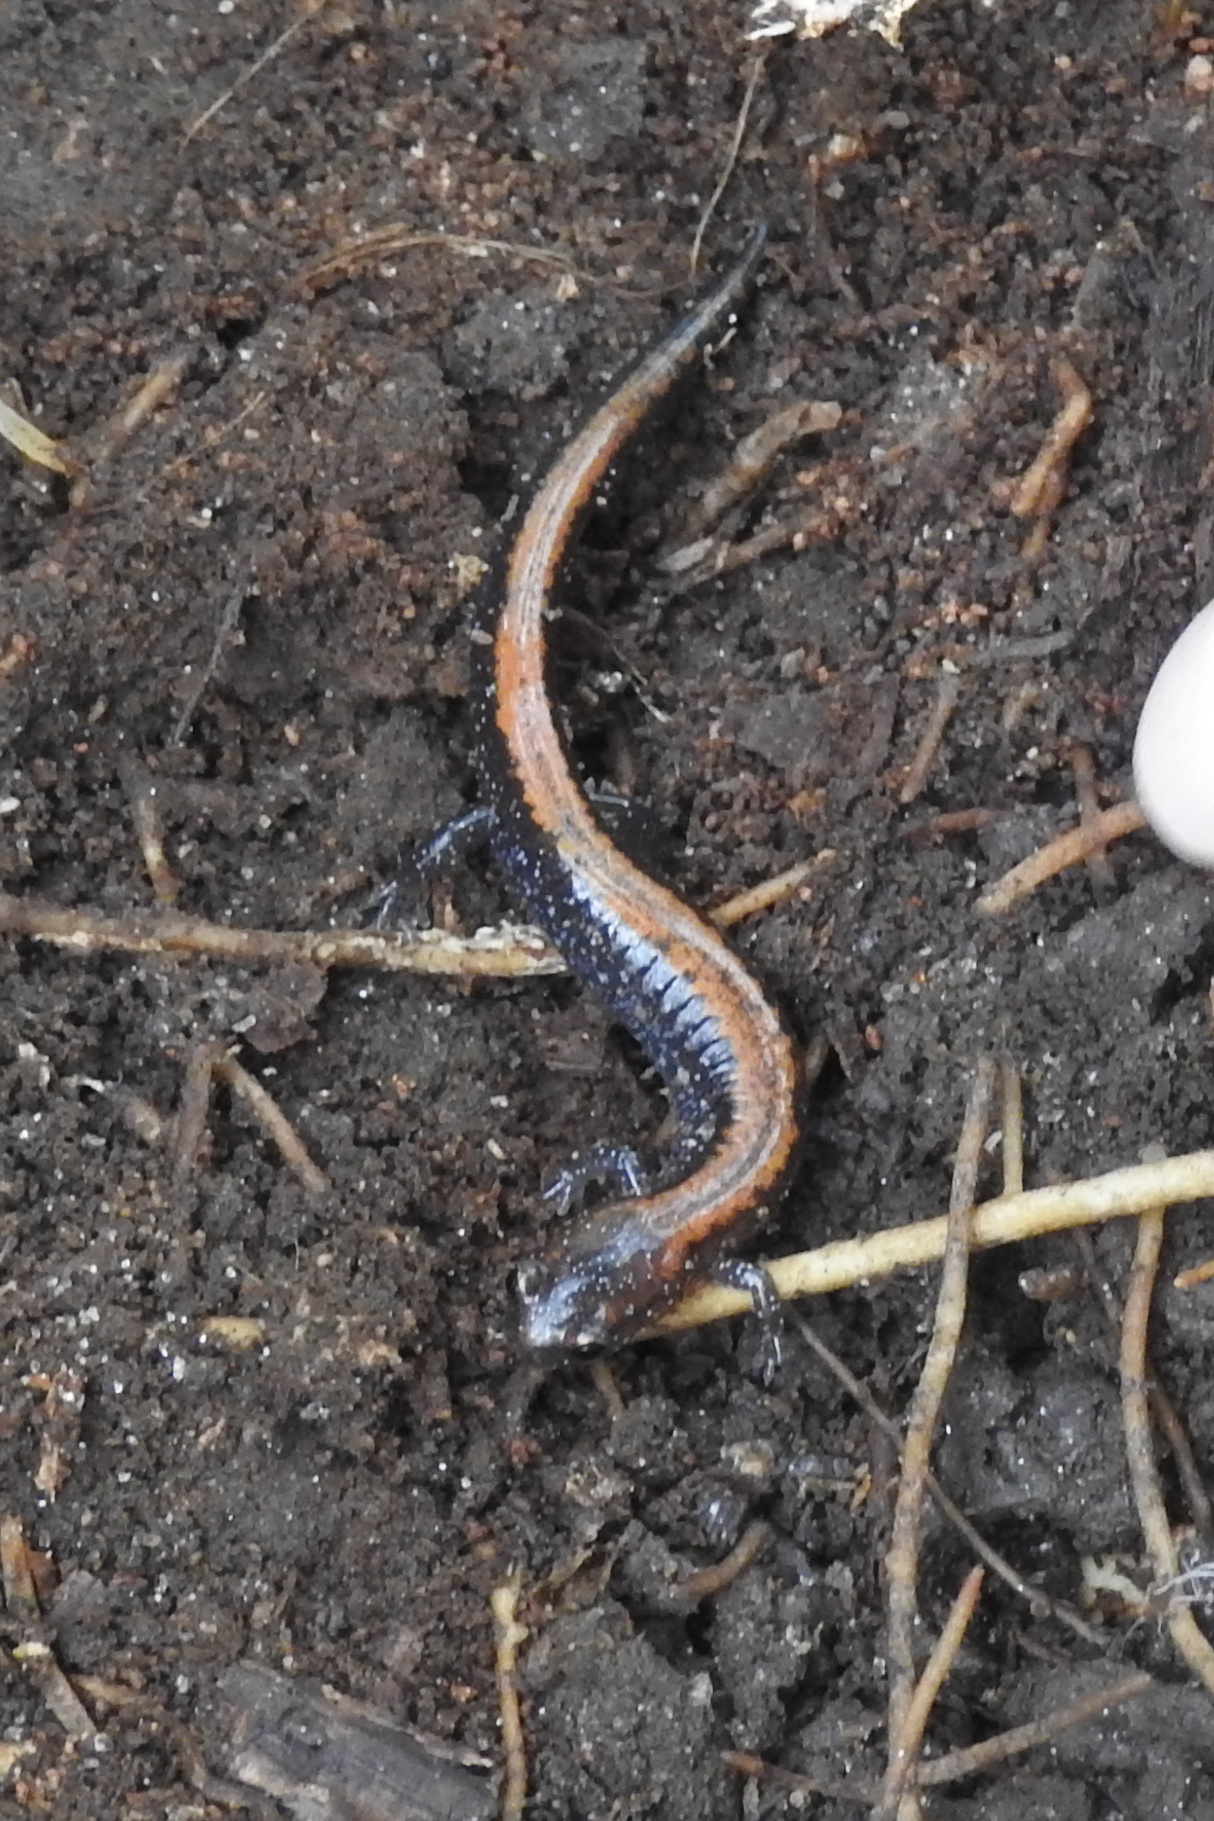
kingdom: Animalia
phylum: Chordata
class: Amphibia
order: Caudata
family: Plethodontidae
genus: Plethodon
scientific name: Plethodon cinereus
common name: Redback salamander
